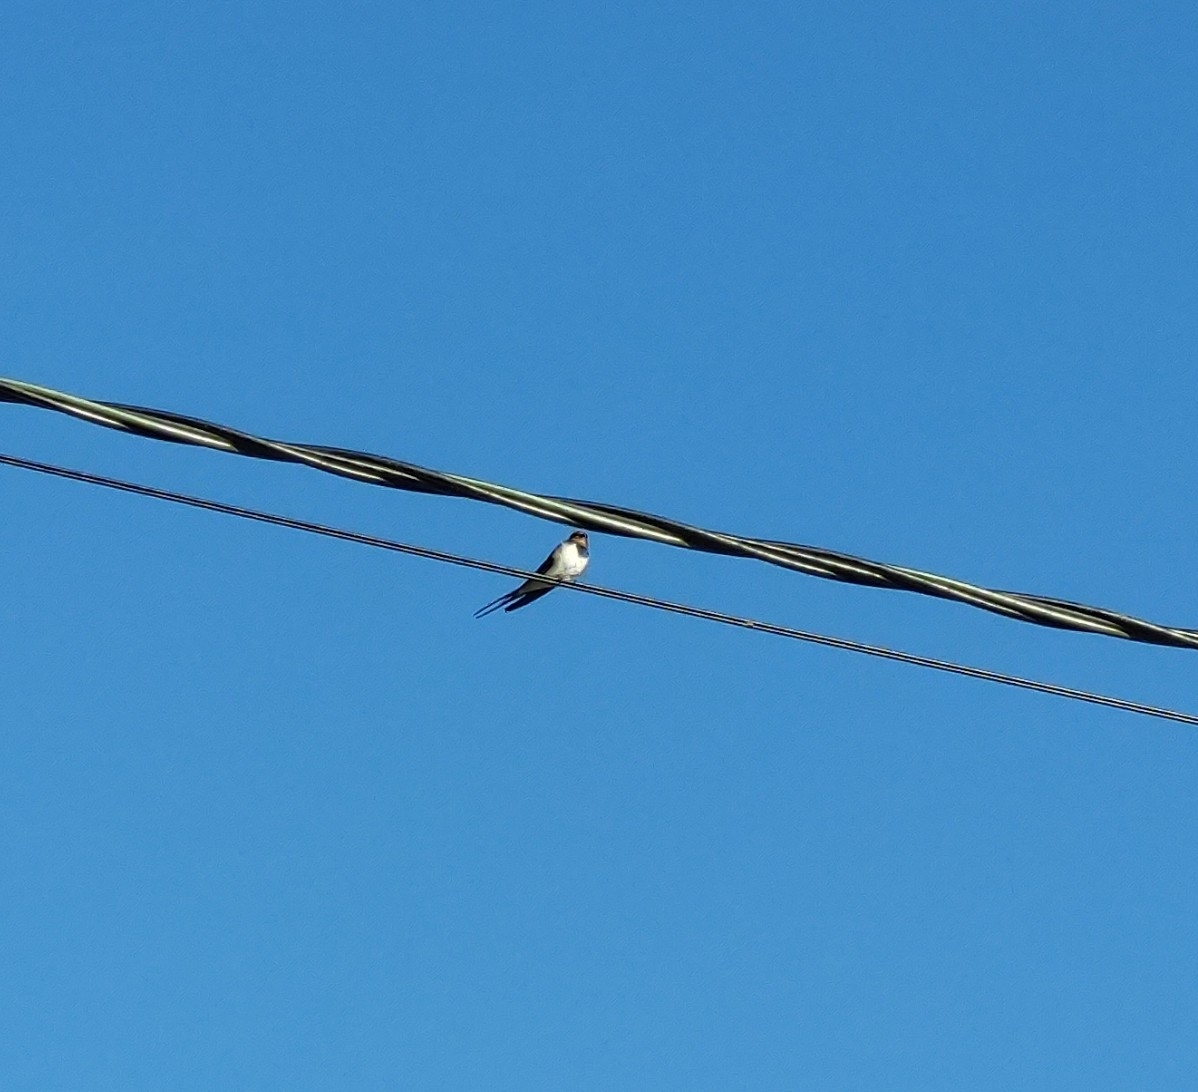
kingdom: Animalia
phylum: Chordata
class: Aves
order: Passeriformes
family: Hirundinidae
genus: Hirundo
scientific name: Hirundo rustica
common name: Barn swallow
